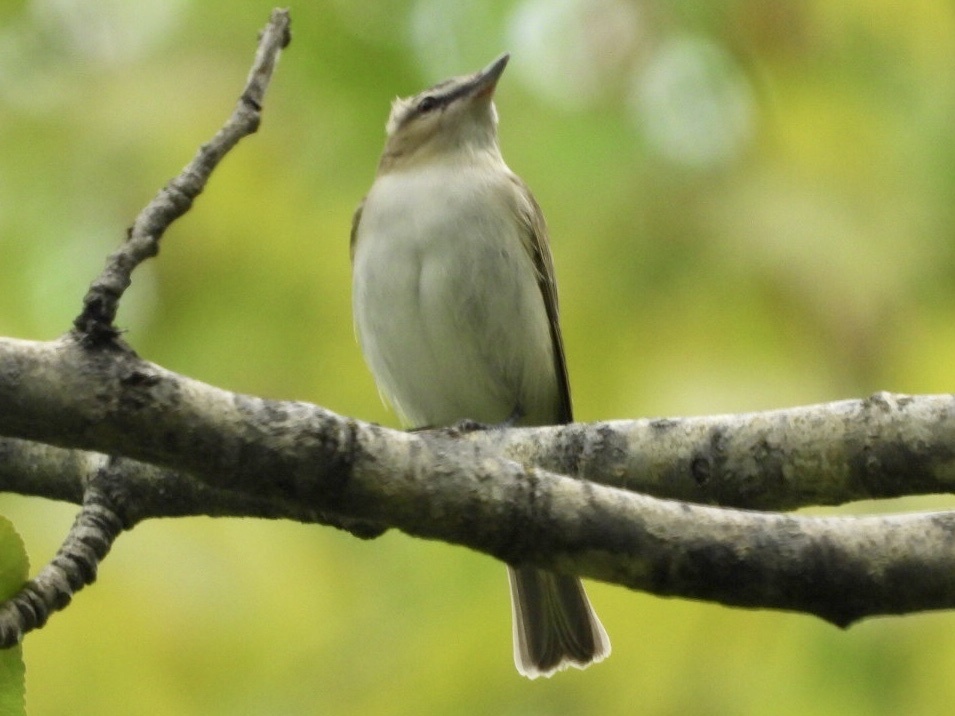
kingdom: Animalia
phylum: Chordata
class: Aves
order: Passeriformes
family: Vireonidae
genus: Vireo
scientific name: Vireo olivaceus
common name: Red-eyed vireo
